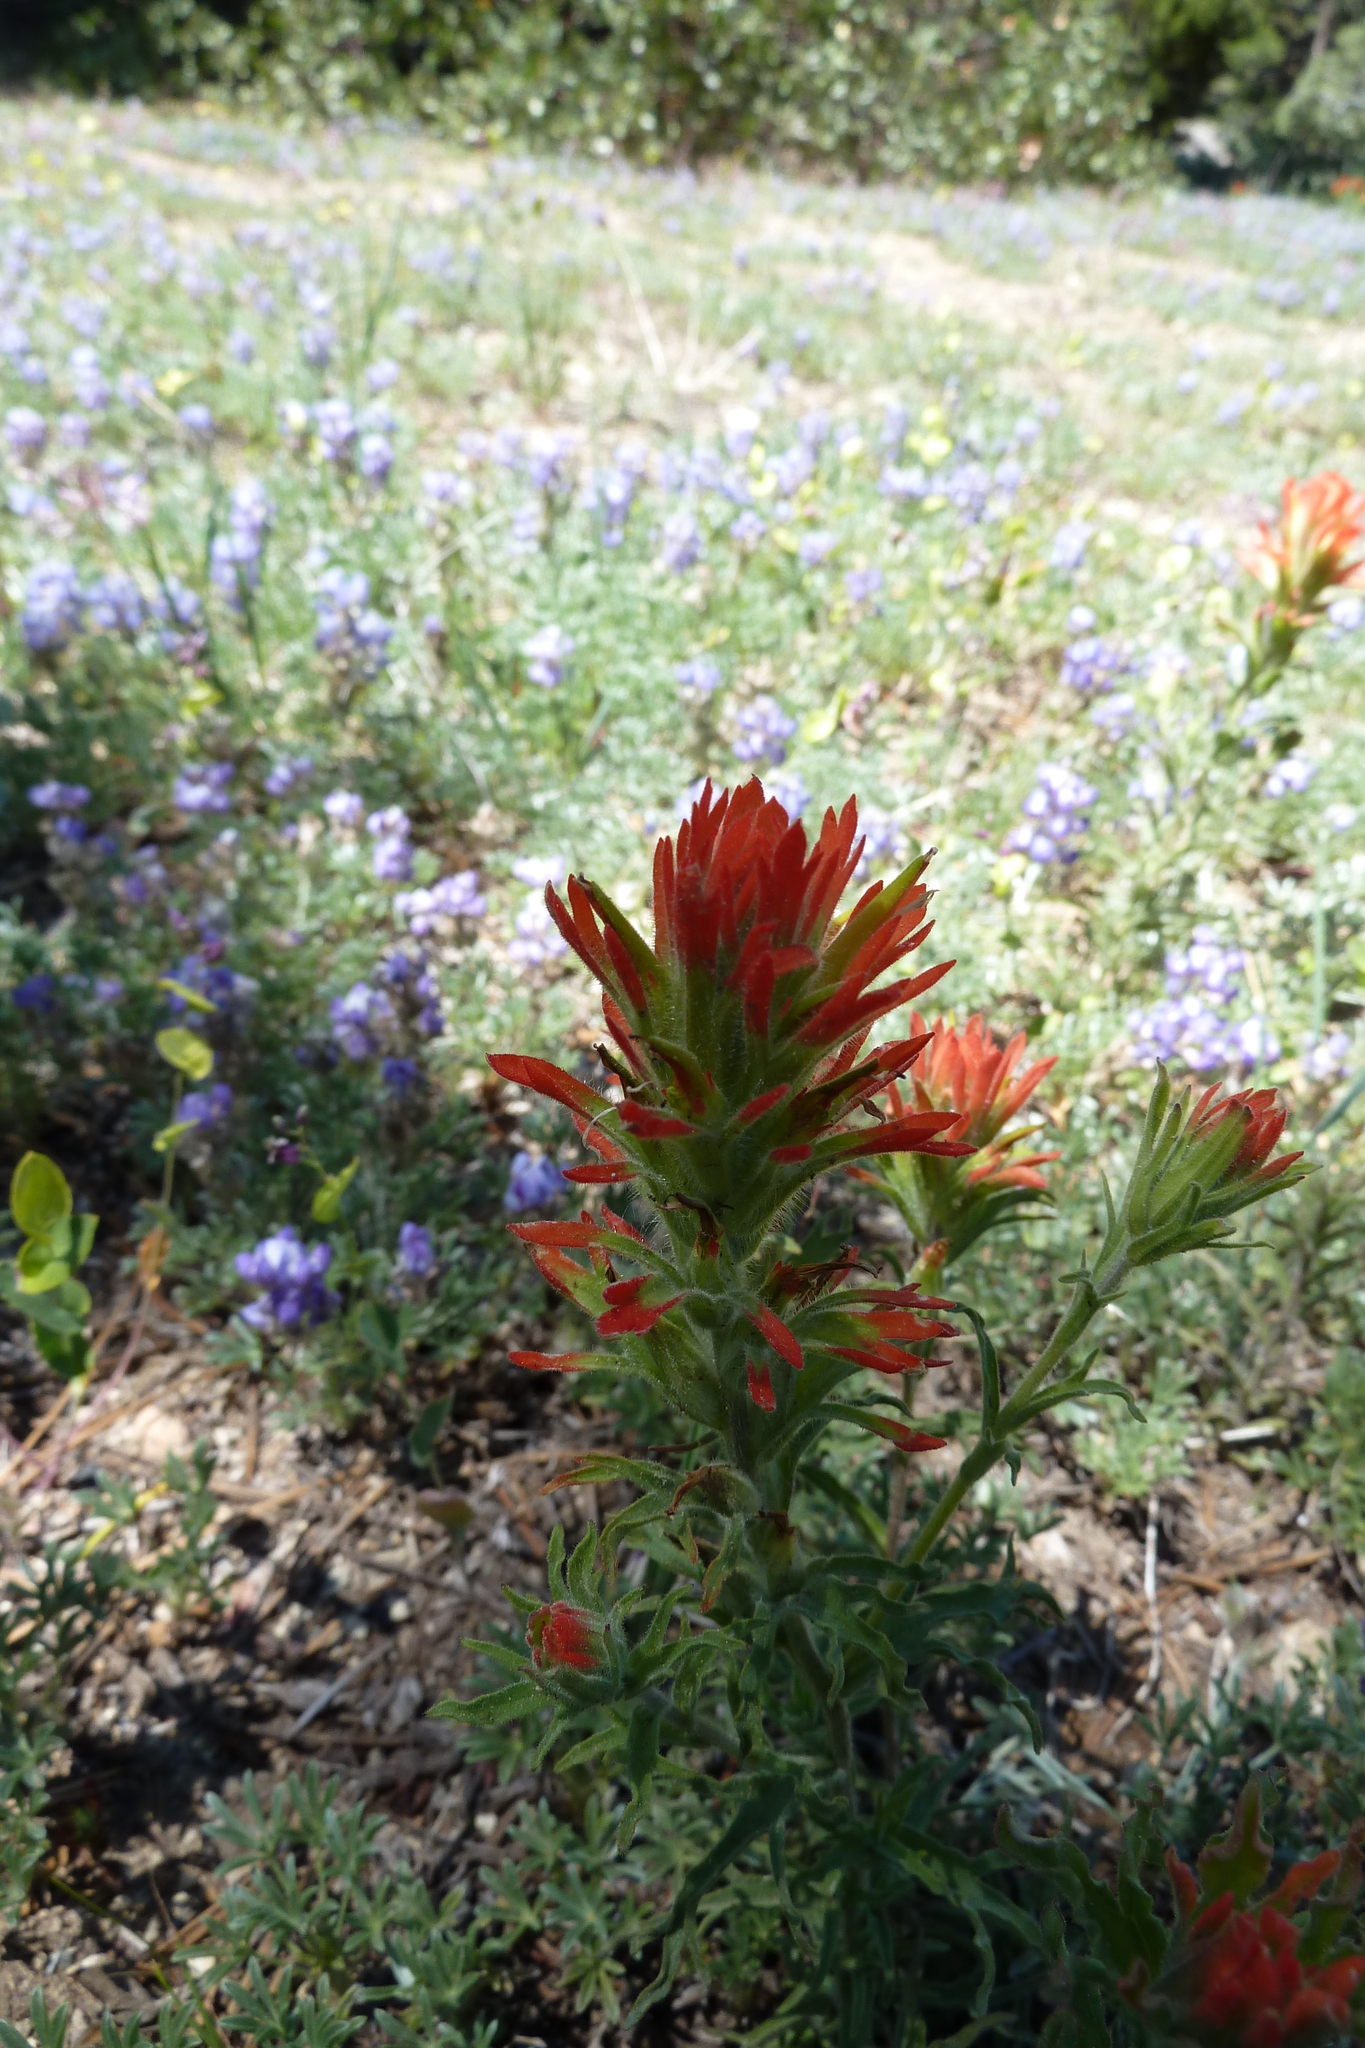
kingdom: Plantae
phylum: Tracheophyta
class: Magnoliopsida
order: Lamiales
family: Orobanchaceae
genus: Castilleja
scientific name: Castilleja applegatei
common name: Wavy-leaf paintbrush
